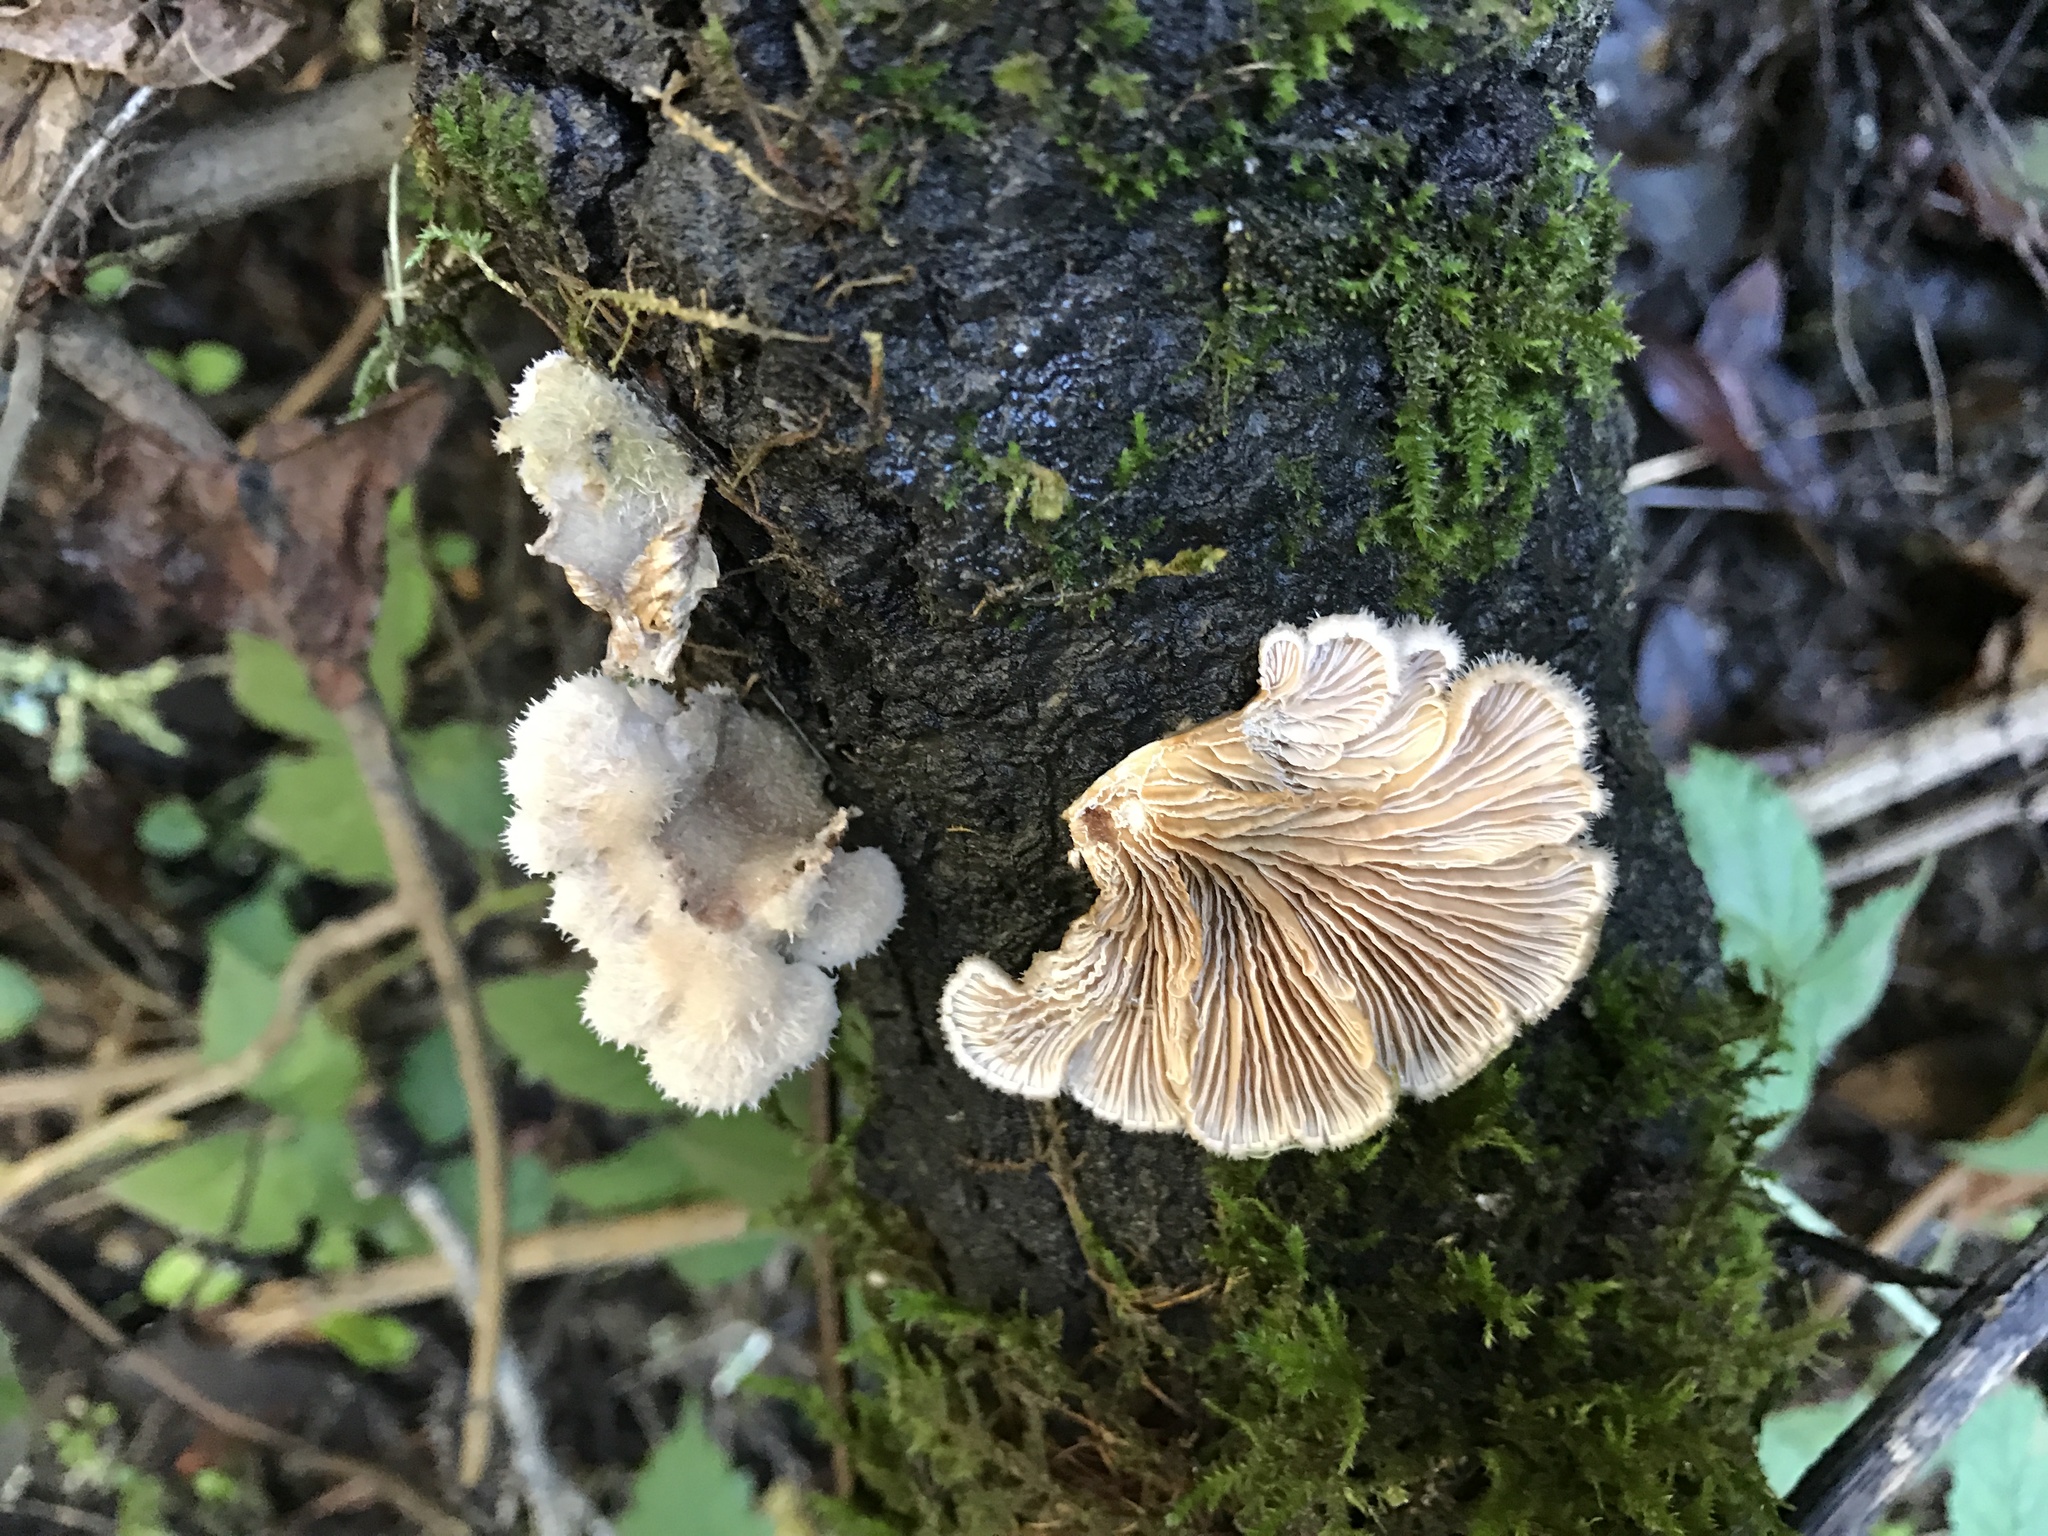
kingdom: Fungi
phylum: Basidiomycota
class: Agaricomycetes
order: Agaricales
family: Schizophyllaceae
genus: Schizophyllum
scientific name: Schizophyllum commune
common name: Common porecrust
